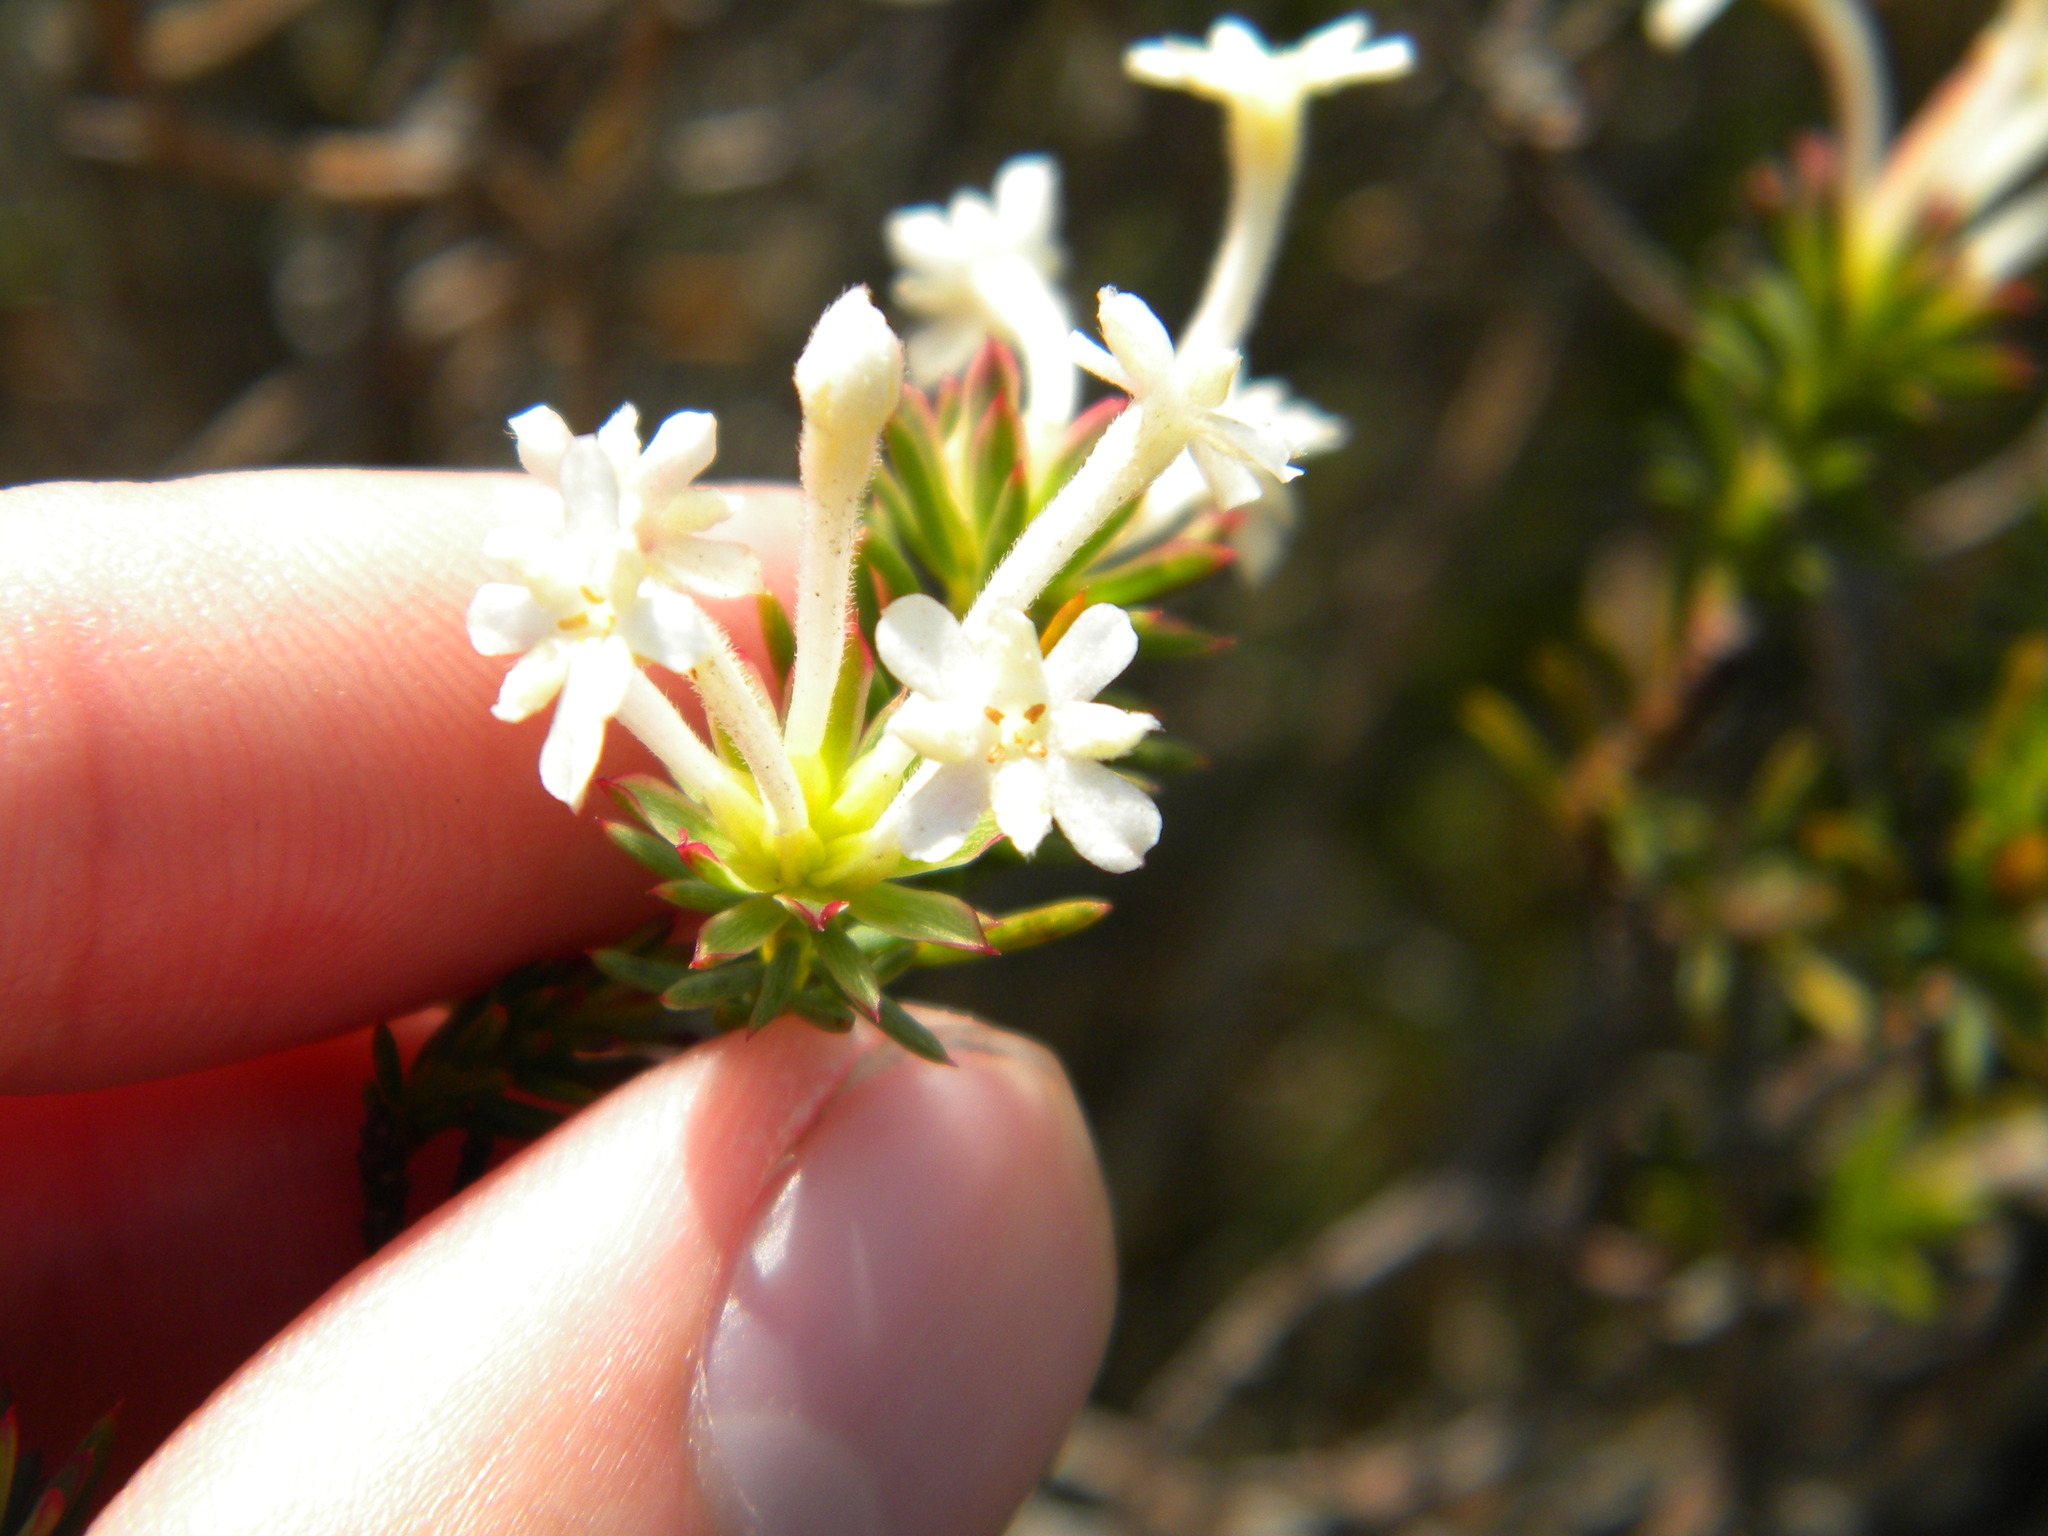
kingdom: Plantae
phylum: Tracheophyta
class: Magnoliopsida
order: Malvales
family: Thymelaeaceae
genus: Gnidia
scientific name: Gnidia pinifolia
